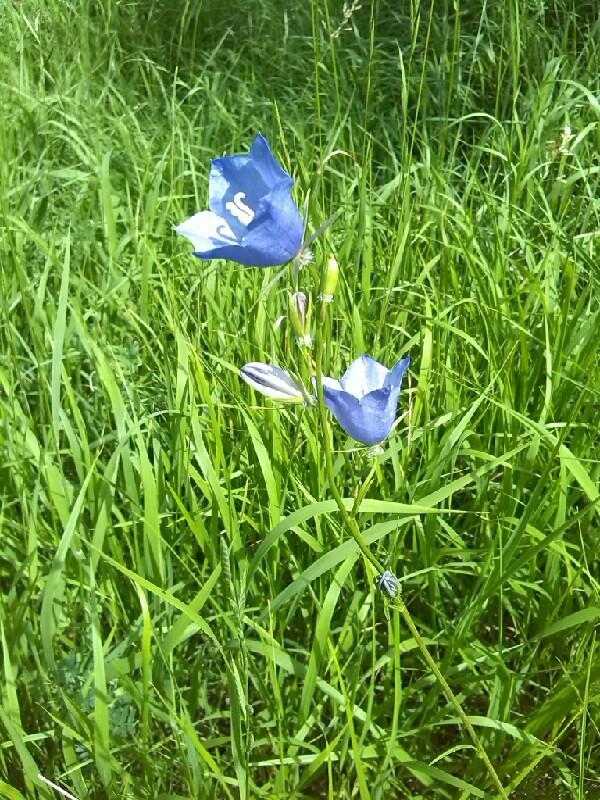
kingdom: Plantae
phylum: Tracheophyta
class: Magnoliopsida
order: Asterales
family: Campanulaceae
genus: Campanula
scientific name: Campanula persicifolia
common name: Peach-leaved bellflower
